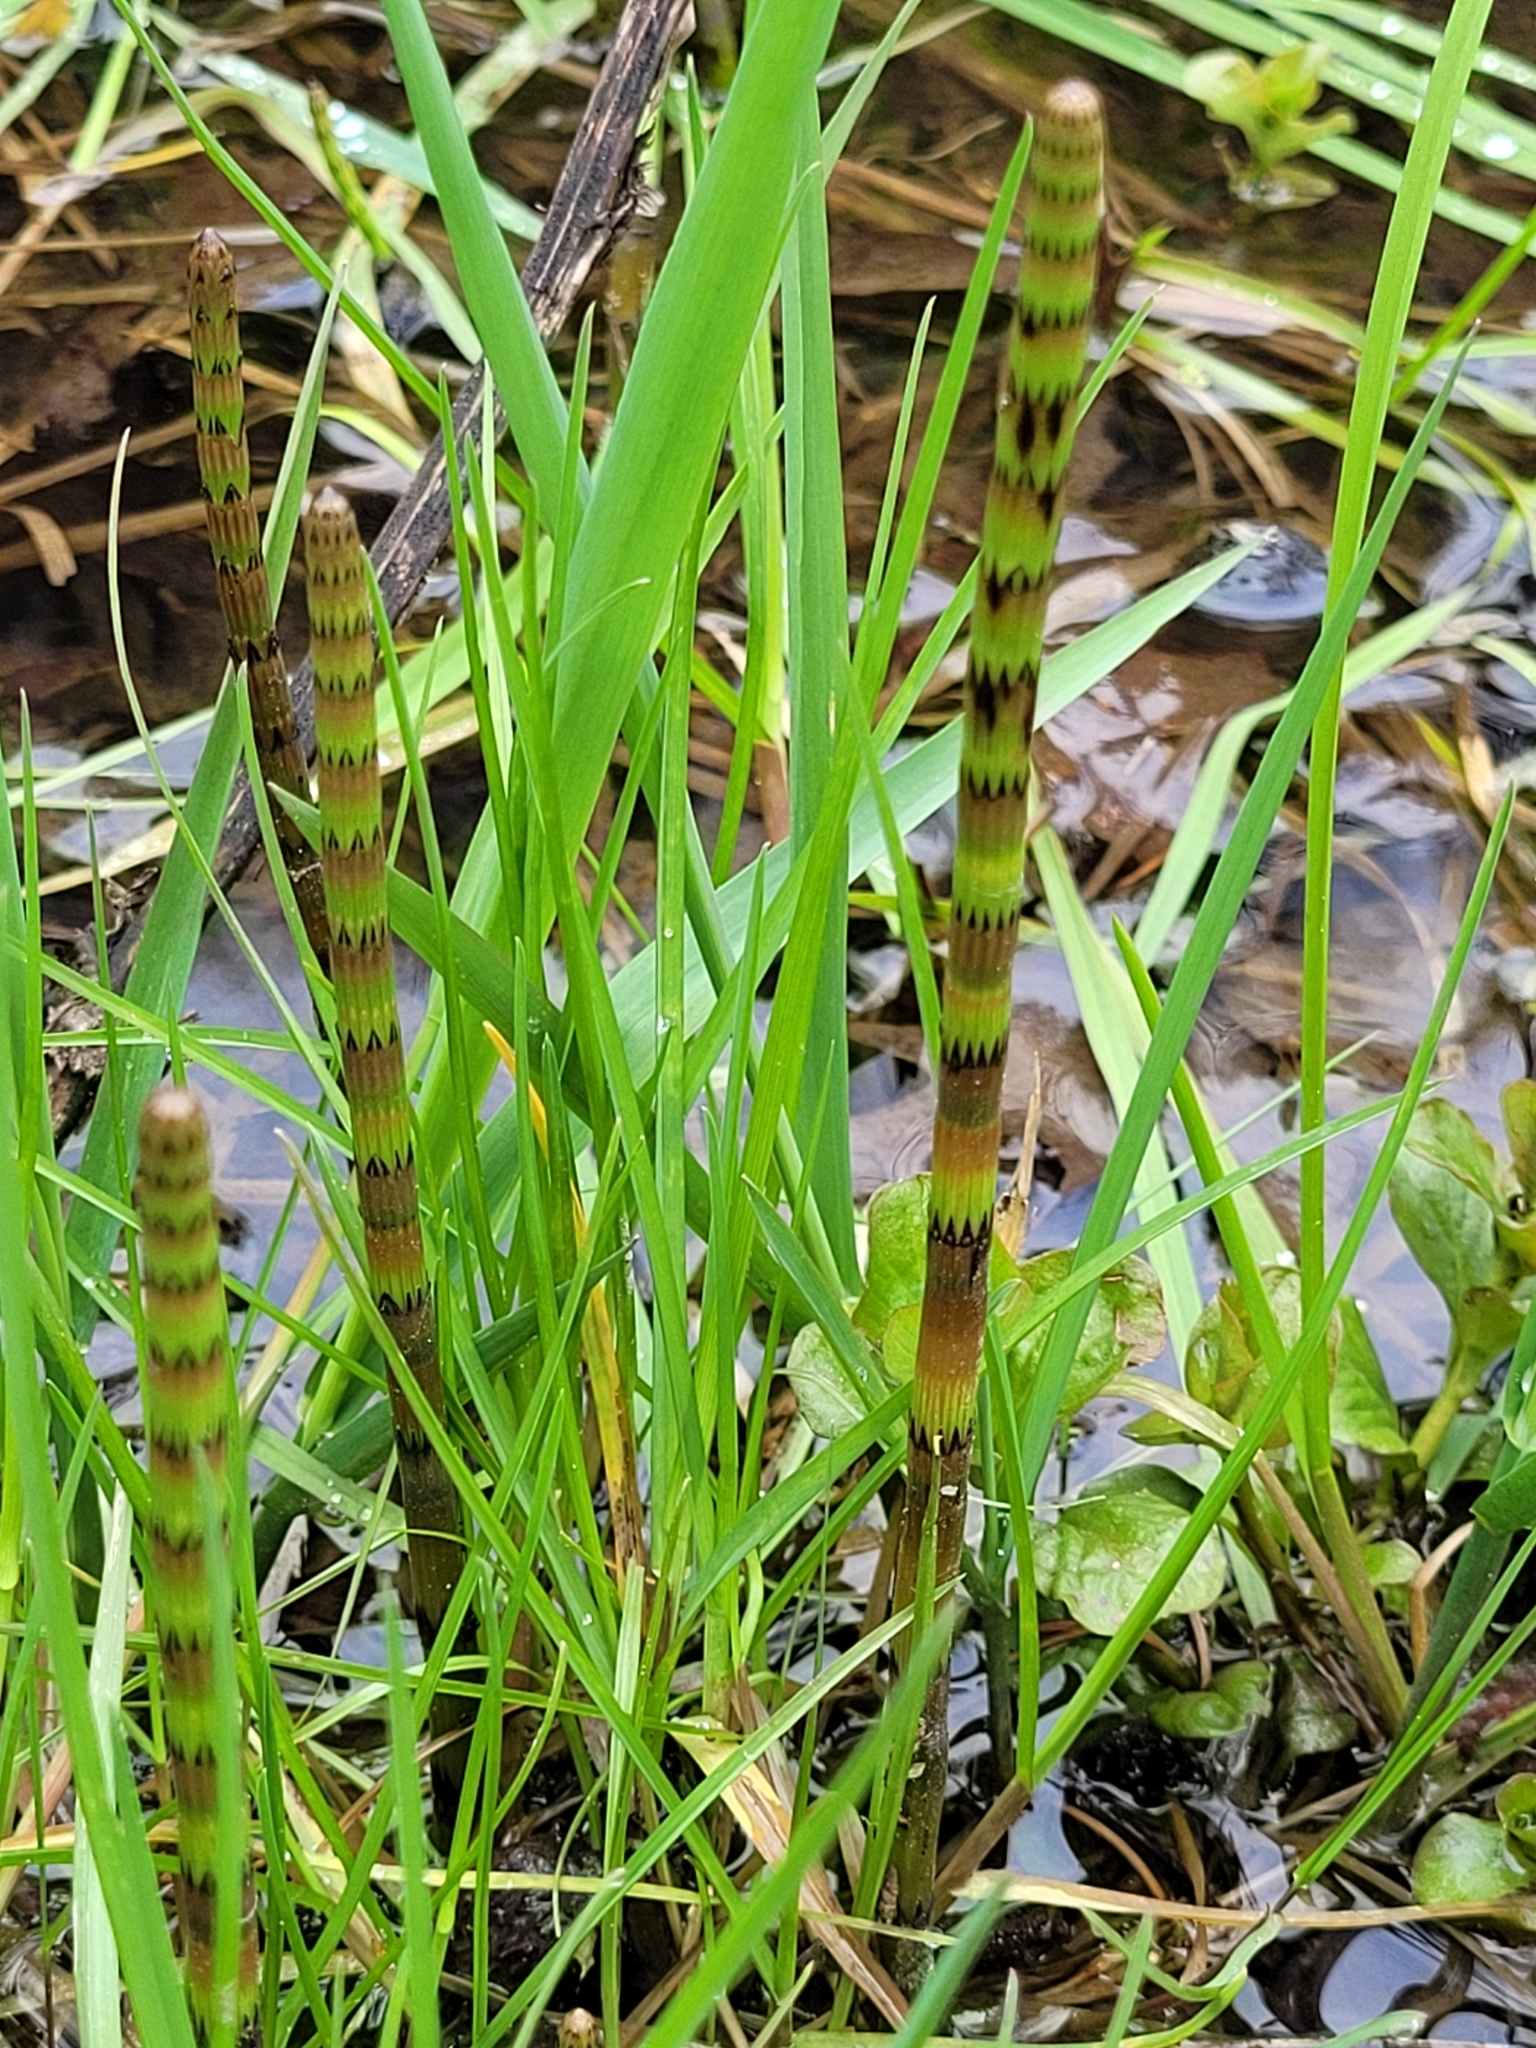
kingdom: Plantae
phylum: Tracheophyta
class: Polypodiopsida
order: Equisetales
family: Equisetaceae
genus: Equisetum
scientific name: Equisetum fluviatile
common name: Water horsetail
